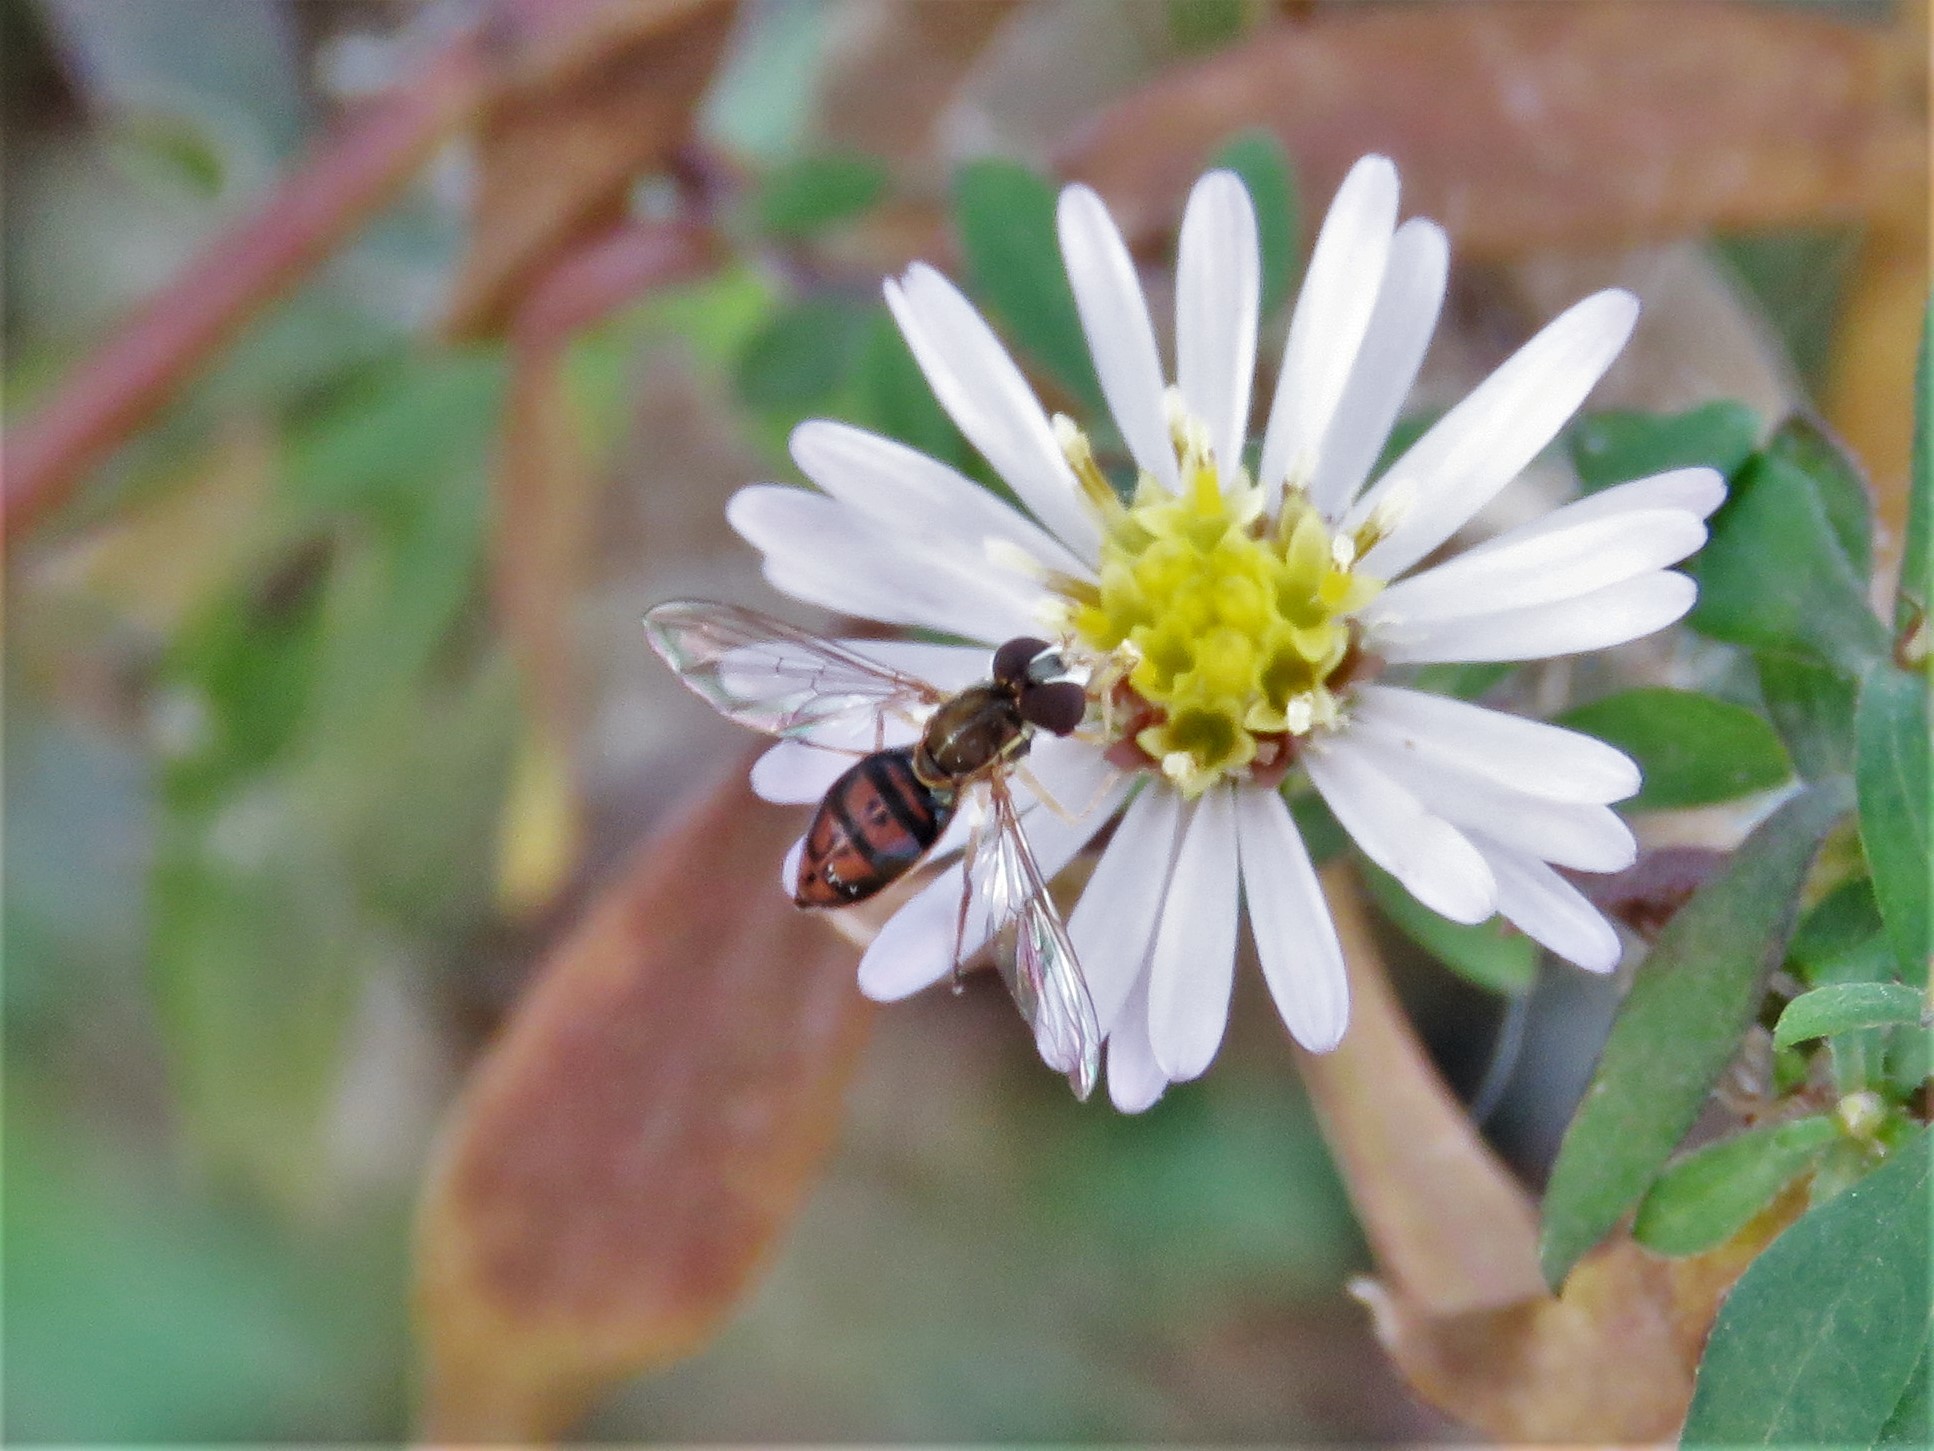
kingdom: Animalia
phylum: Arthropoda
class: Insecta
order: Diptera
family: Syrphidae
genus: Toxomerus
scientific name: Toxomerus marginatus
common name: Syrphid fly
